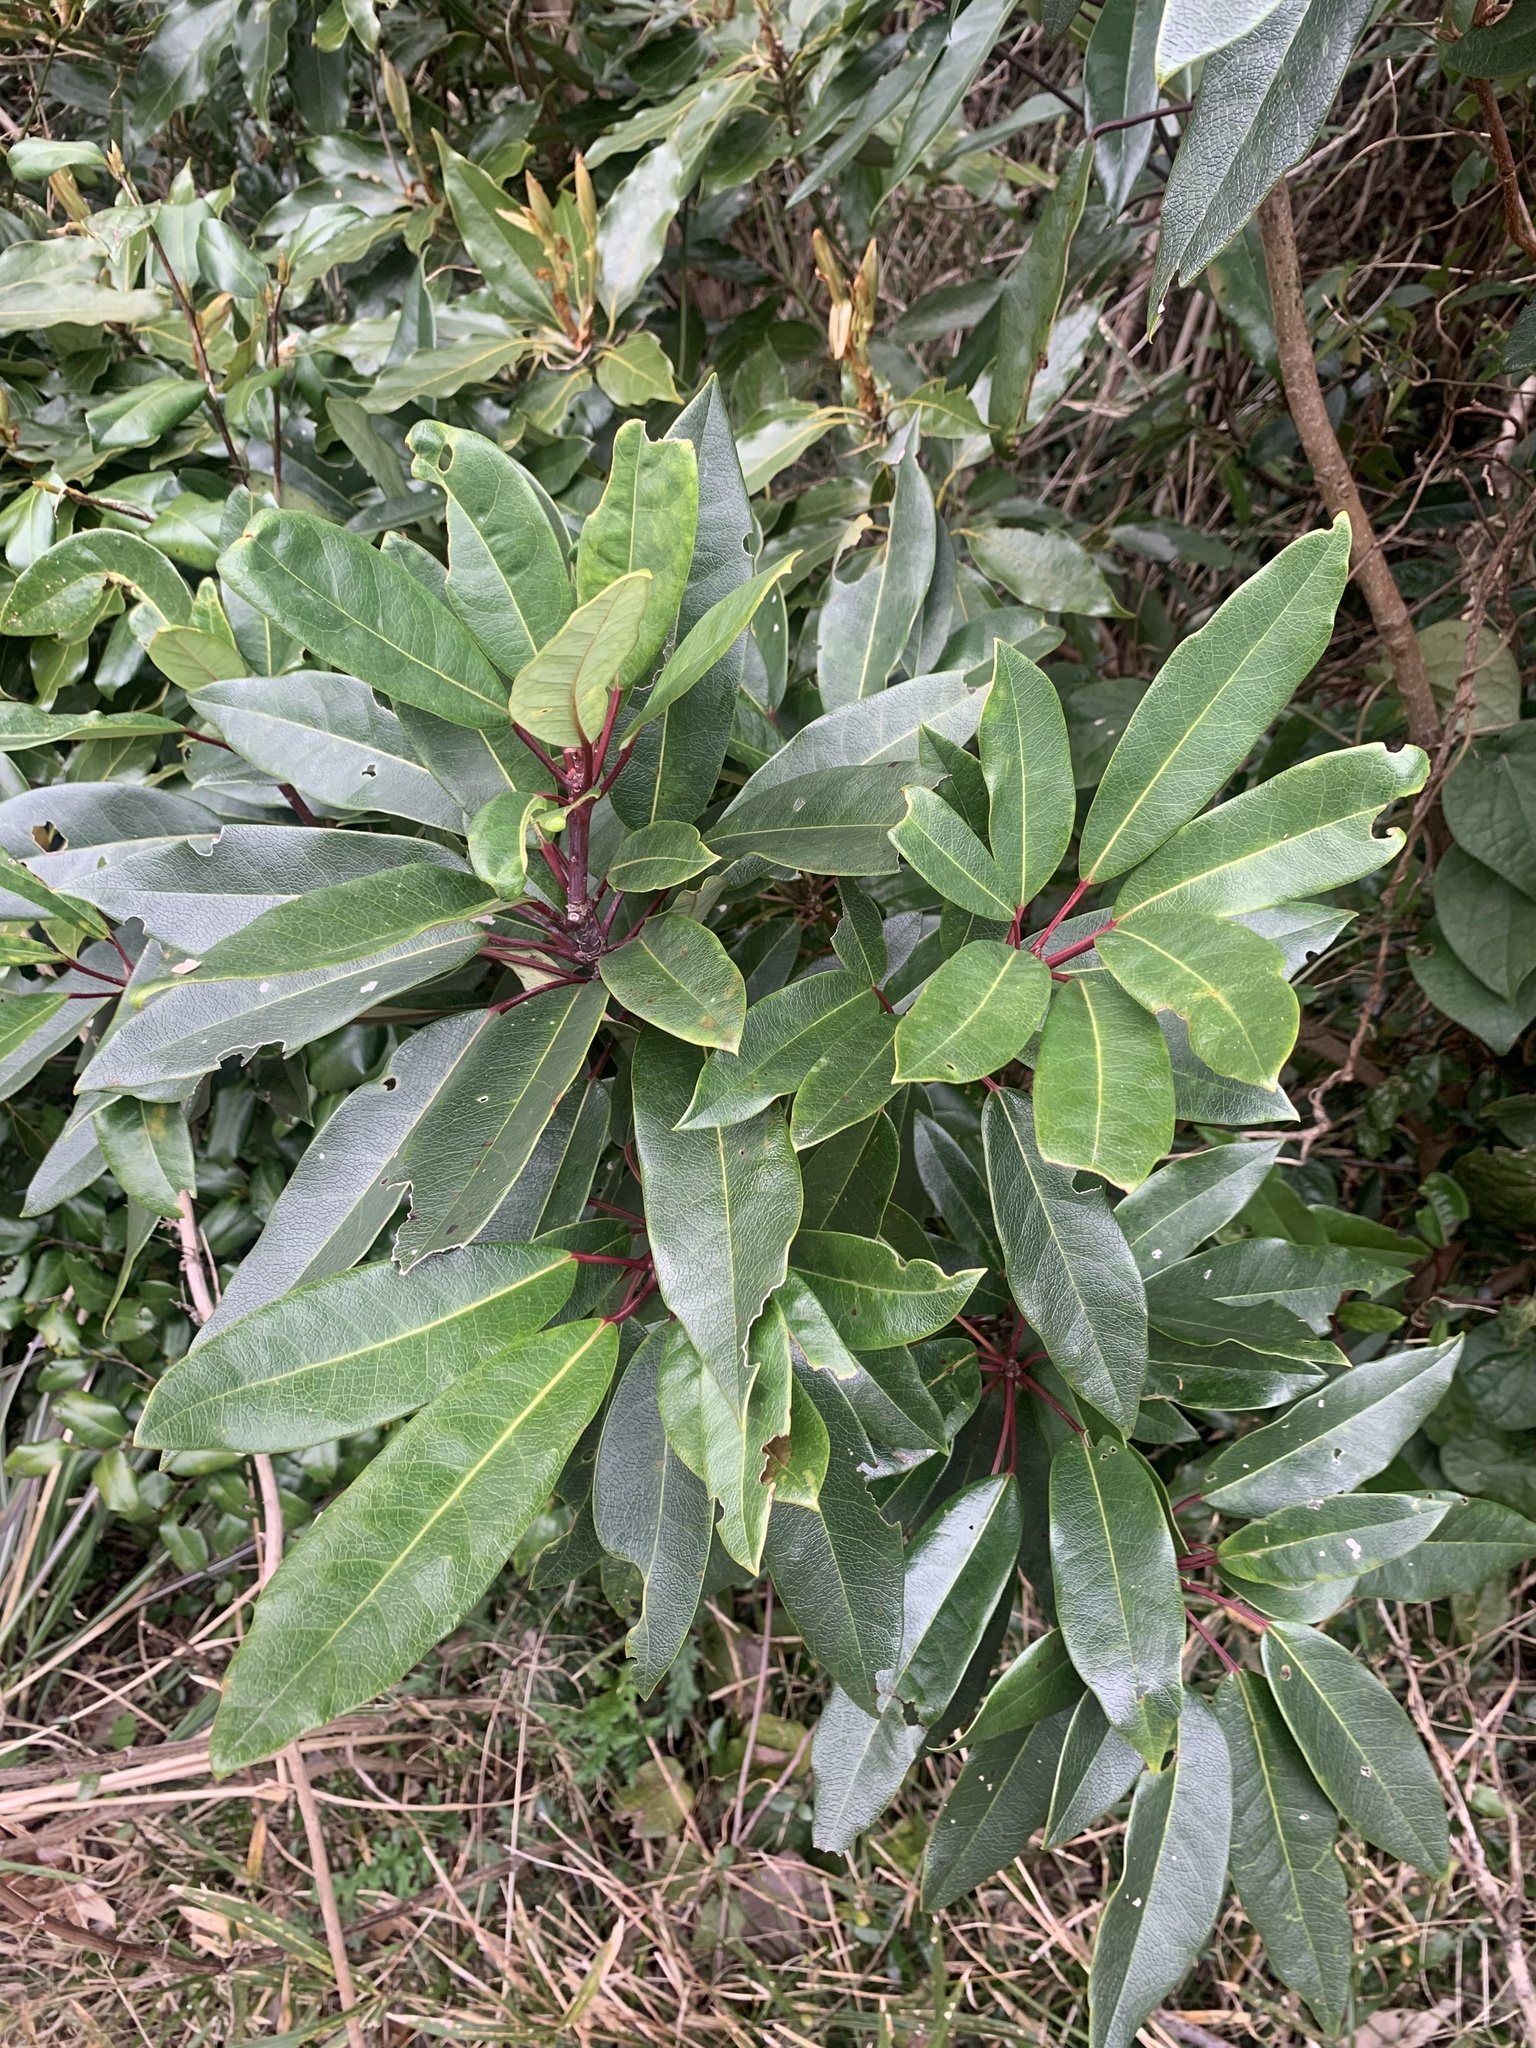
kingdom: Plantae
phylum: Tracheophyta
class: Magnoliopsida
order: Saxifragales
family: Daphniphyllaceae
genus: Daphniphyllum
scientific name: Daphniphyllum teijsmannii
